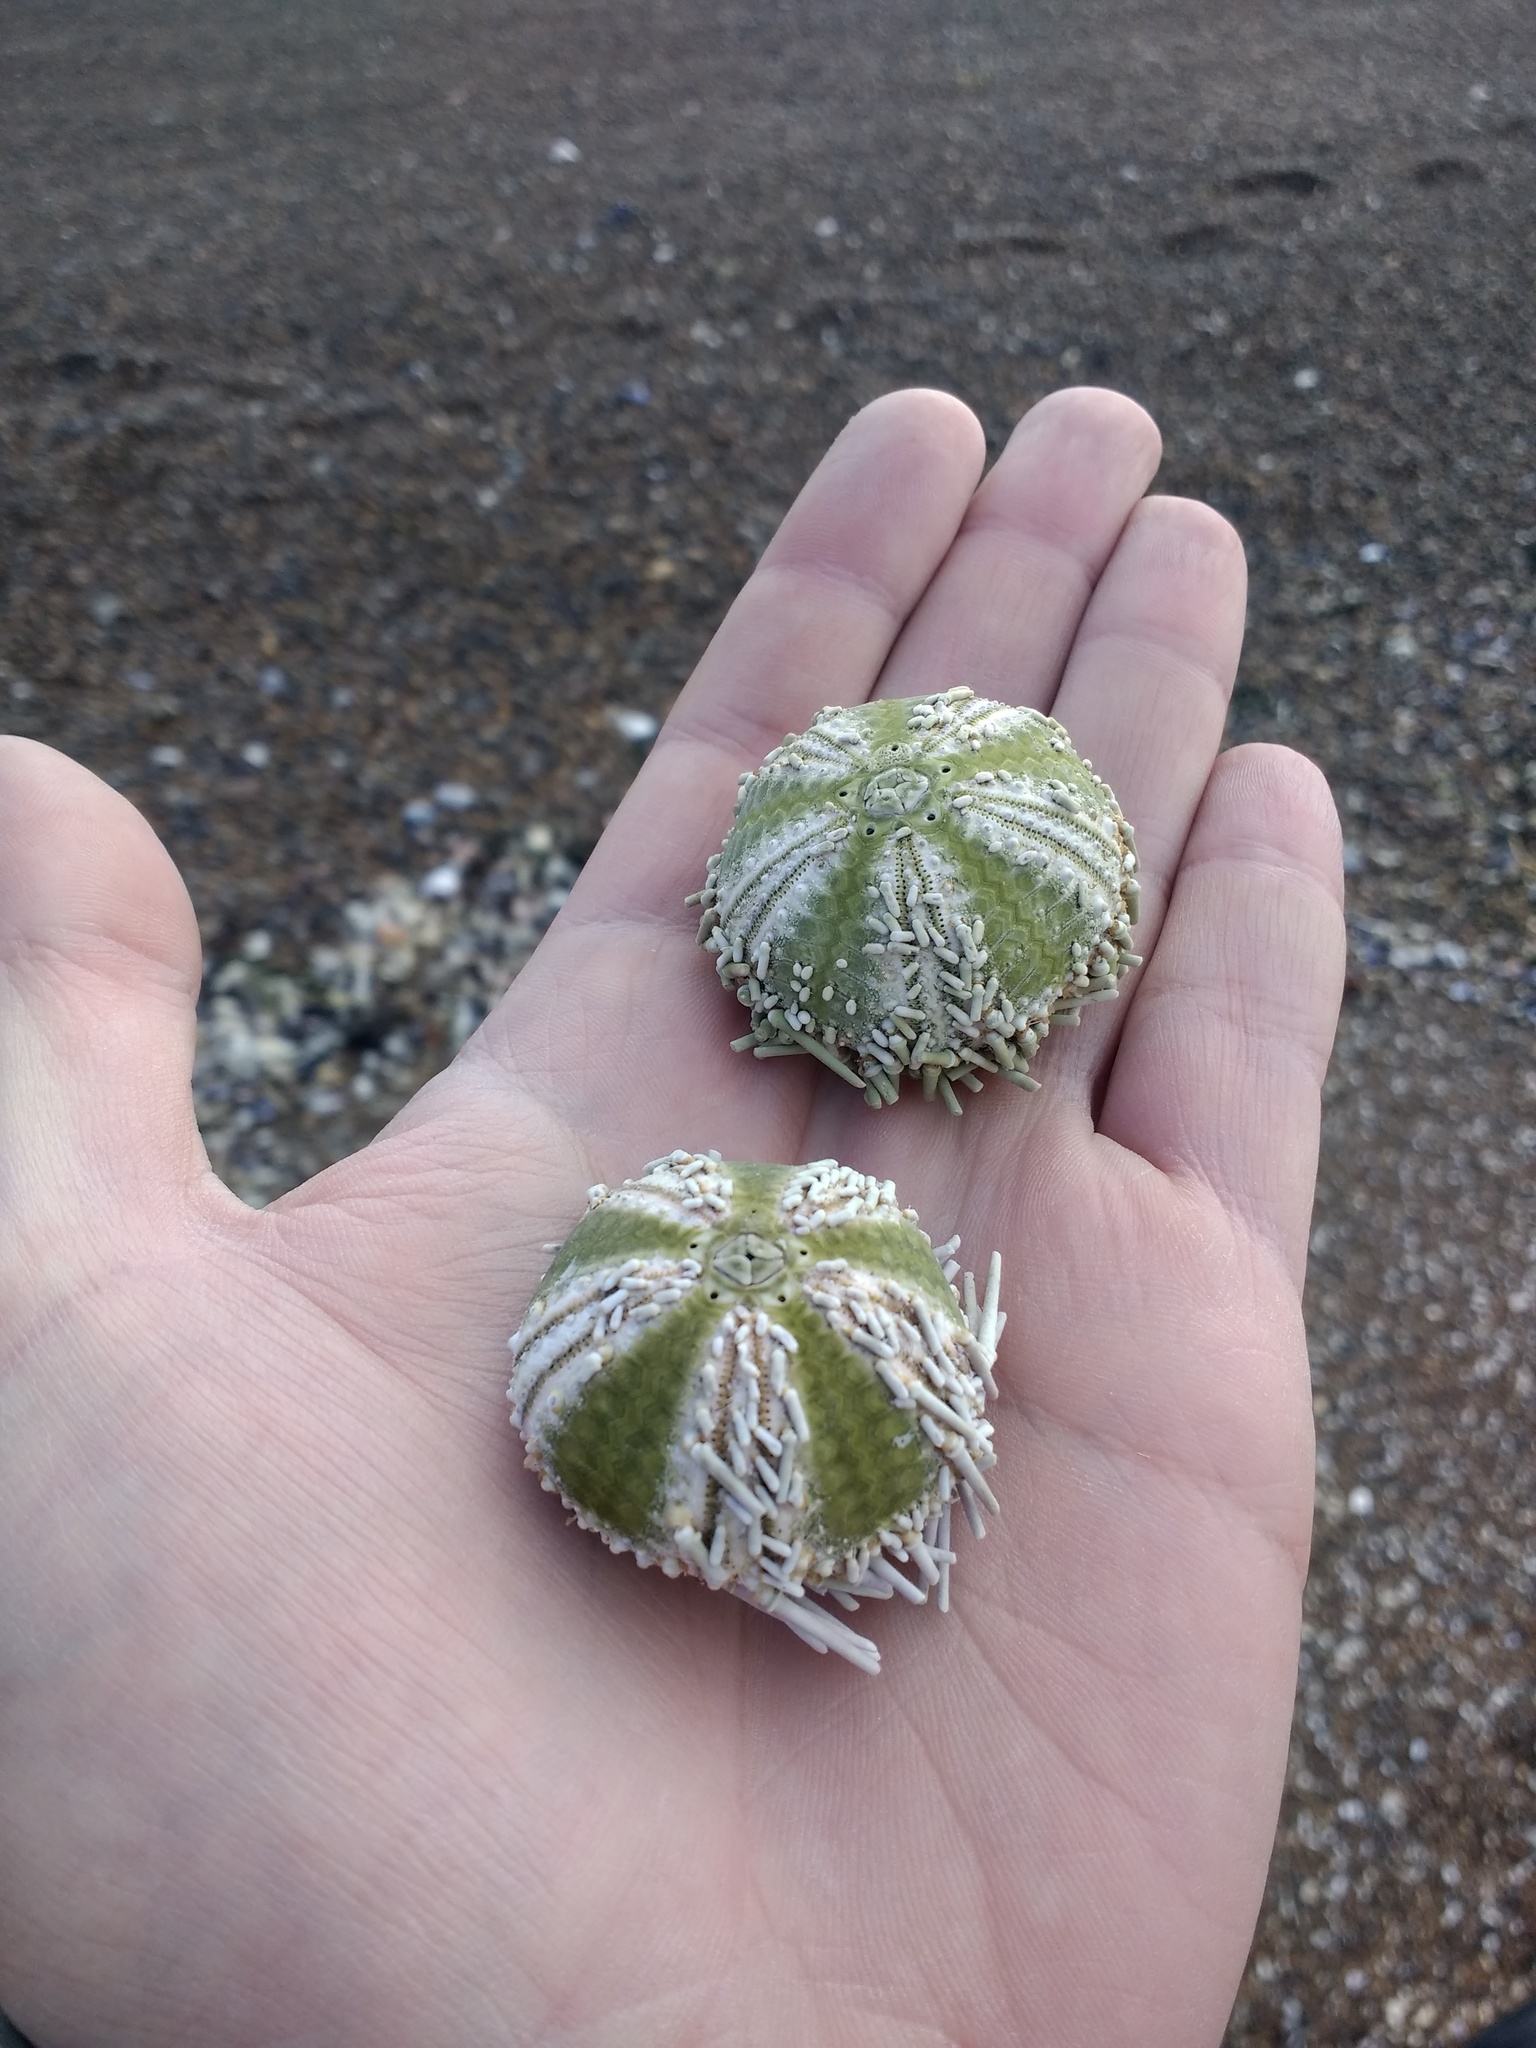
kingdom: Animalia
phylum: Echinodermata
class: Echinoidea
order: Arbacioida
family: Arbaciidae
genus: Arbacia
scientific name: Arbacia dufresnii
